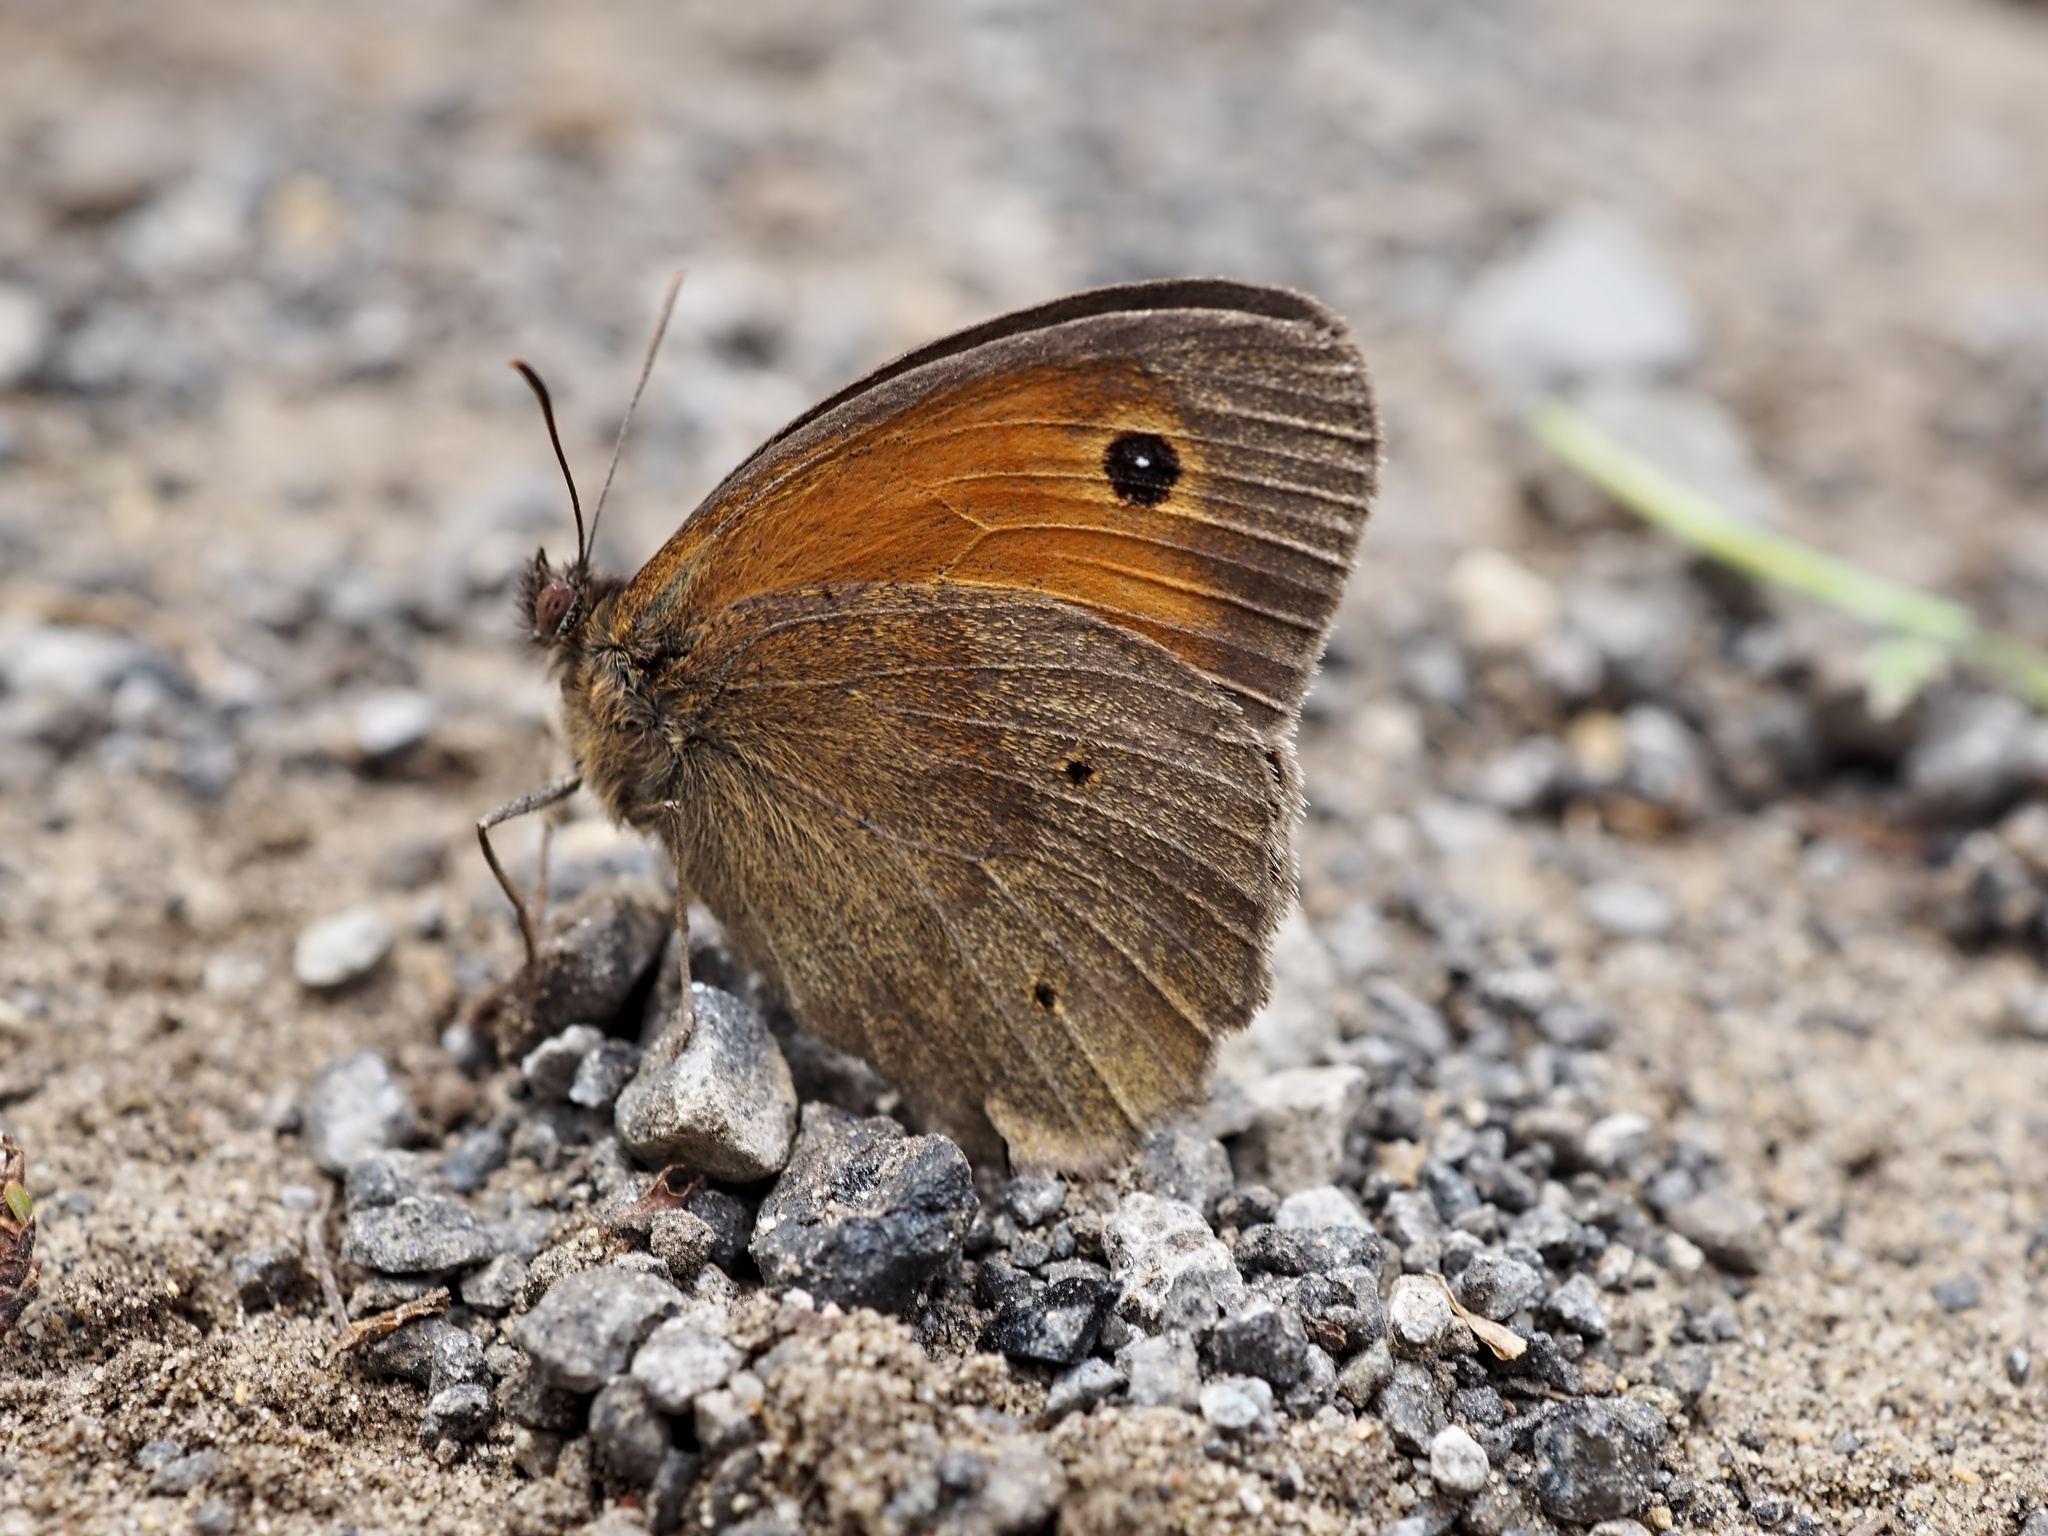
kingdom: Animalia
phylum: Arthropoda
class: Insecta
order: Lepidoptera
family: Nymphalidae
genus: Maniola
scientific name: Maniola jurtina
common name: Meadow brown
